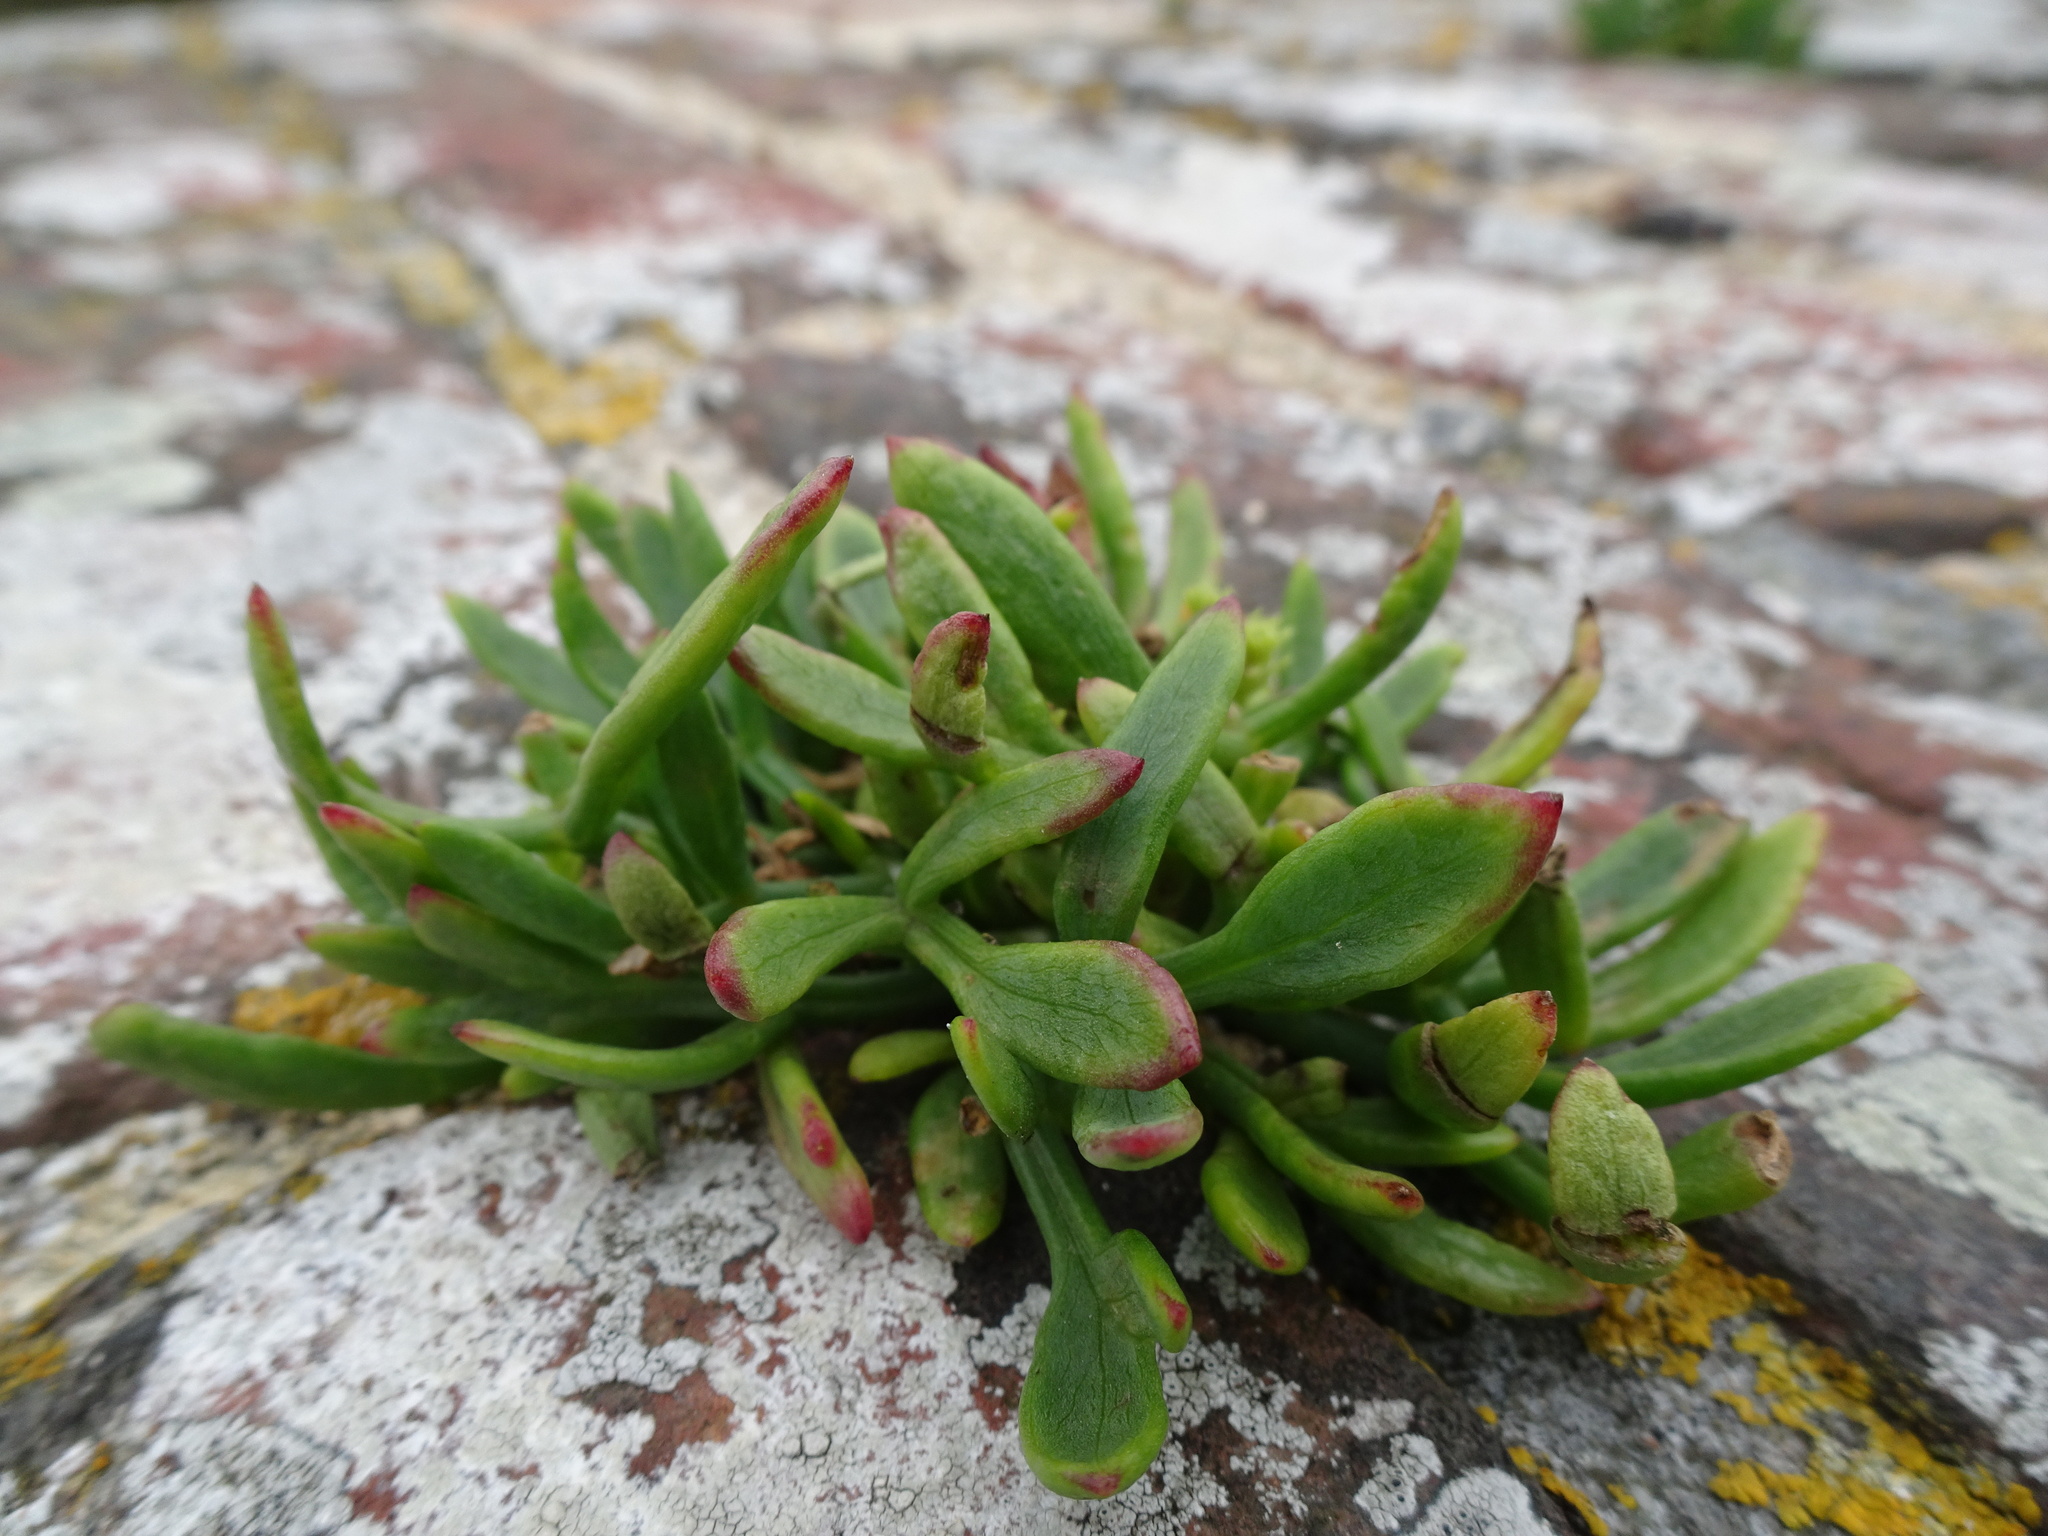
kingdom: Plantae
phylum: Tracheophyta
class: Magnoliopsida
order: Apiales
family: Apiaceae
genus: Crithmum
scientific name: Crithmum maritimum
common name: Rock samphire
